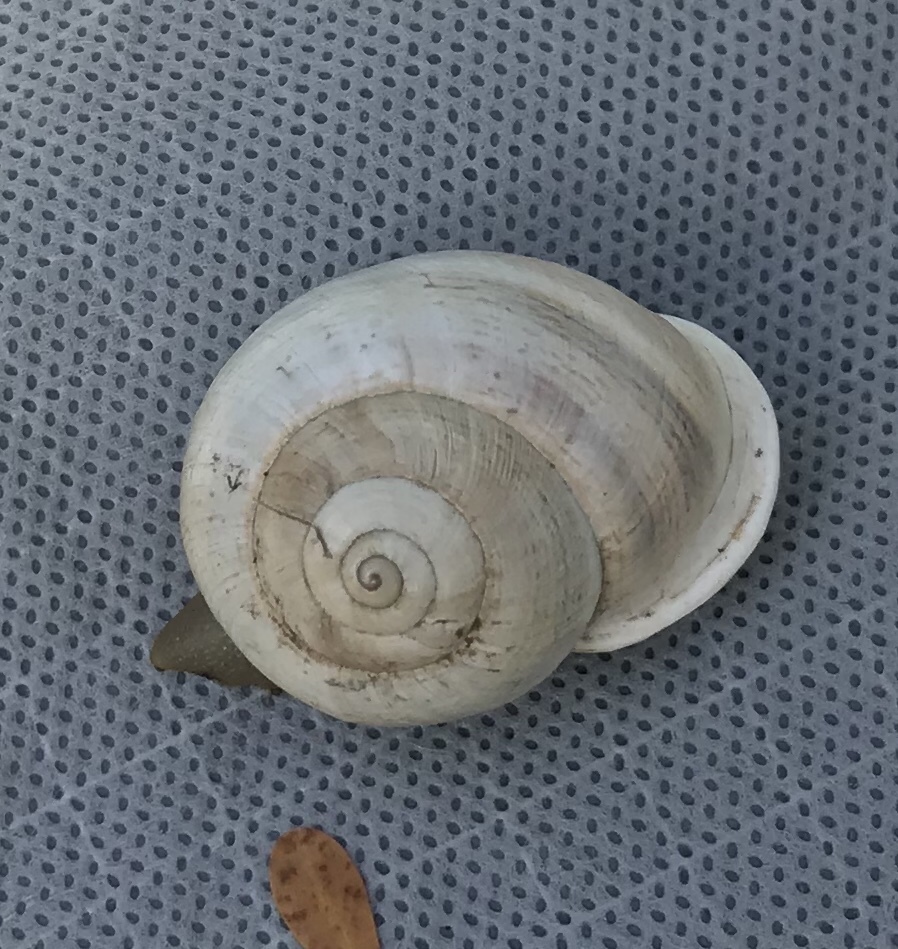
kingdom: Animalia
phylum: Mollusca
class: Gastropoda
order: Stylommatophora
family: Helicidae
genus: Otala
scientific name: Otala lactea
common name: Milk snail
